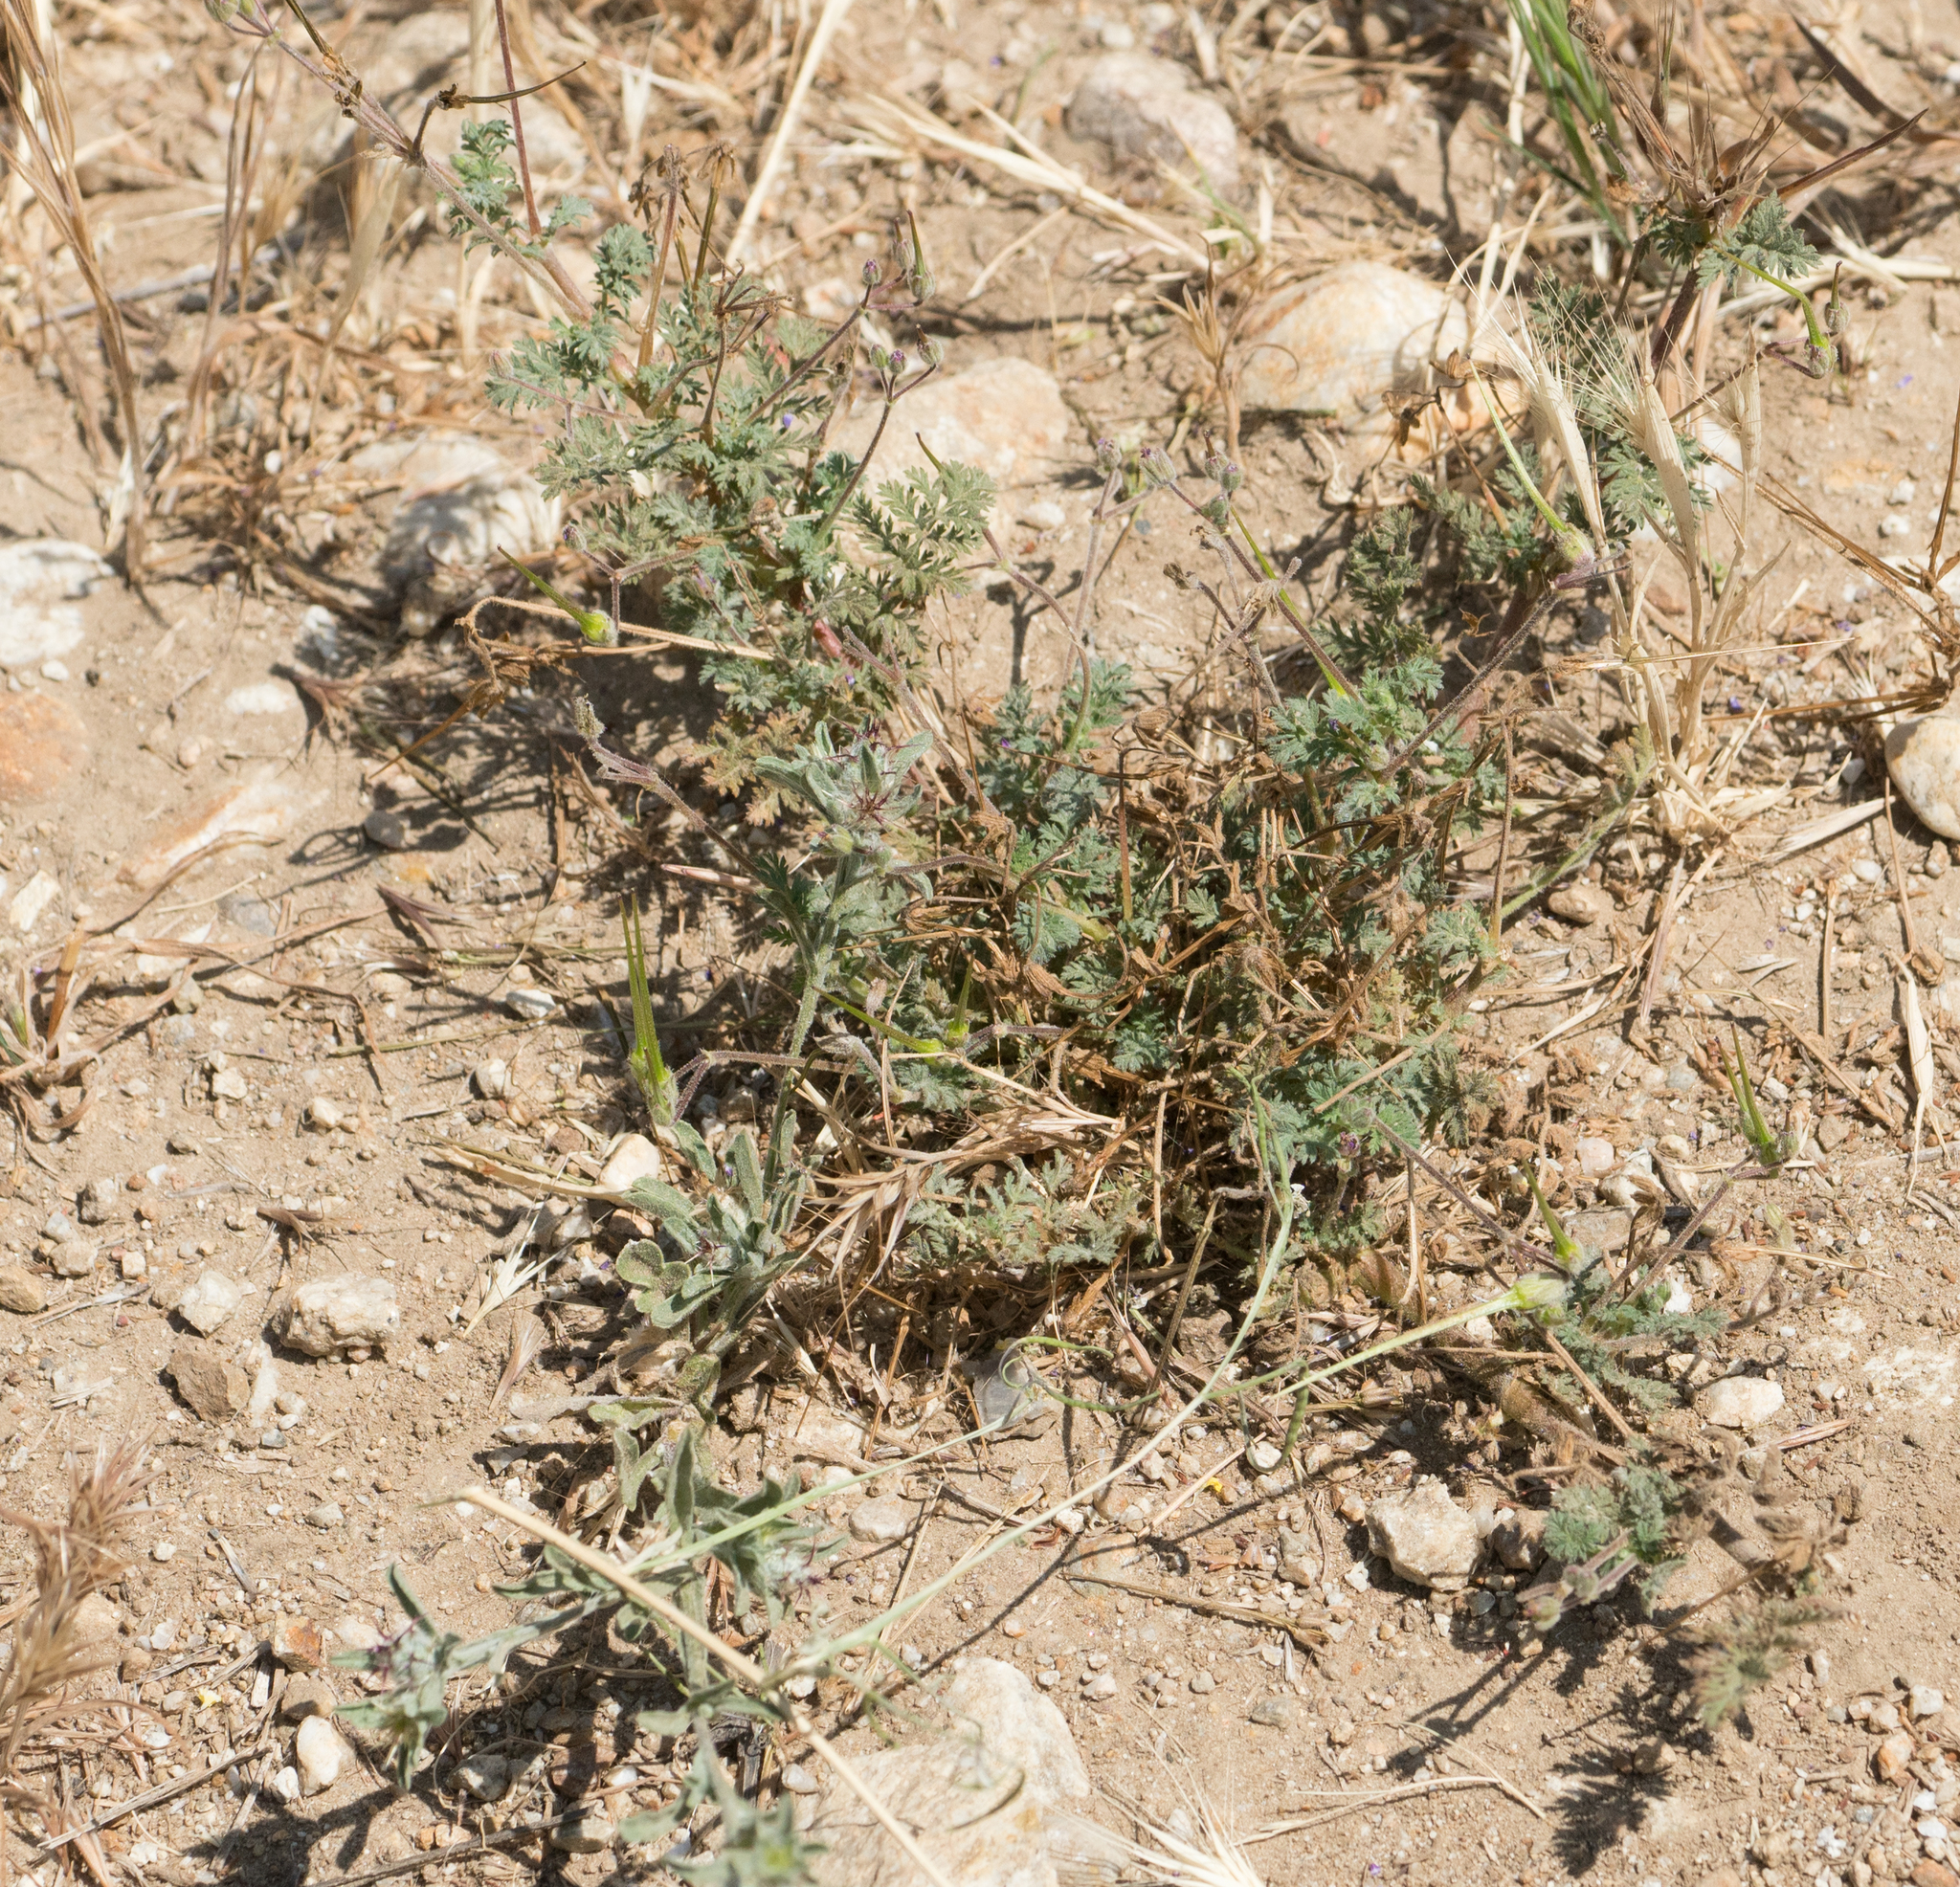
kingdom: Plantae
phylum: Tracheophyta
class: Magnoliopsida
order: Geraniales
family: Geraniaceae
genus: Erodium
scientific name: Erodium cicutarium
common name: Common stork's-bill
